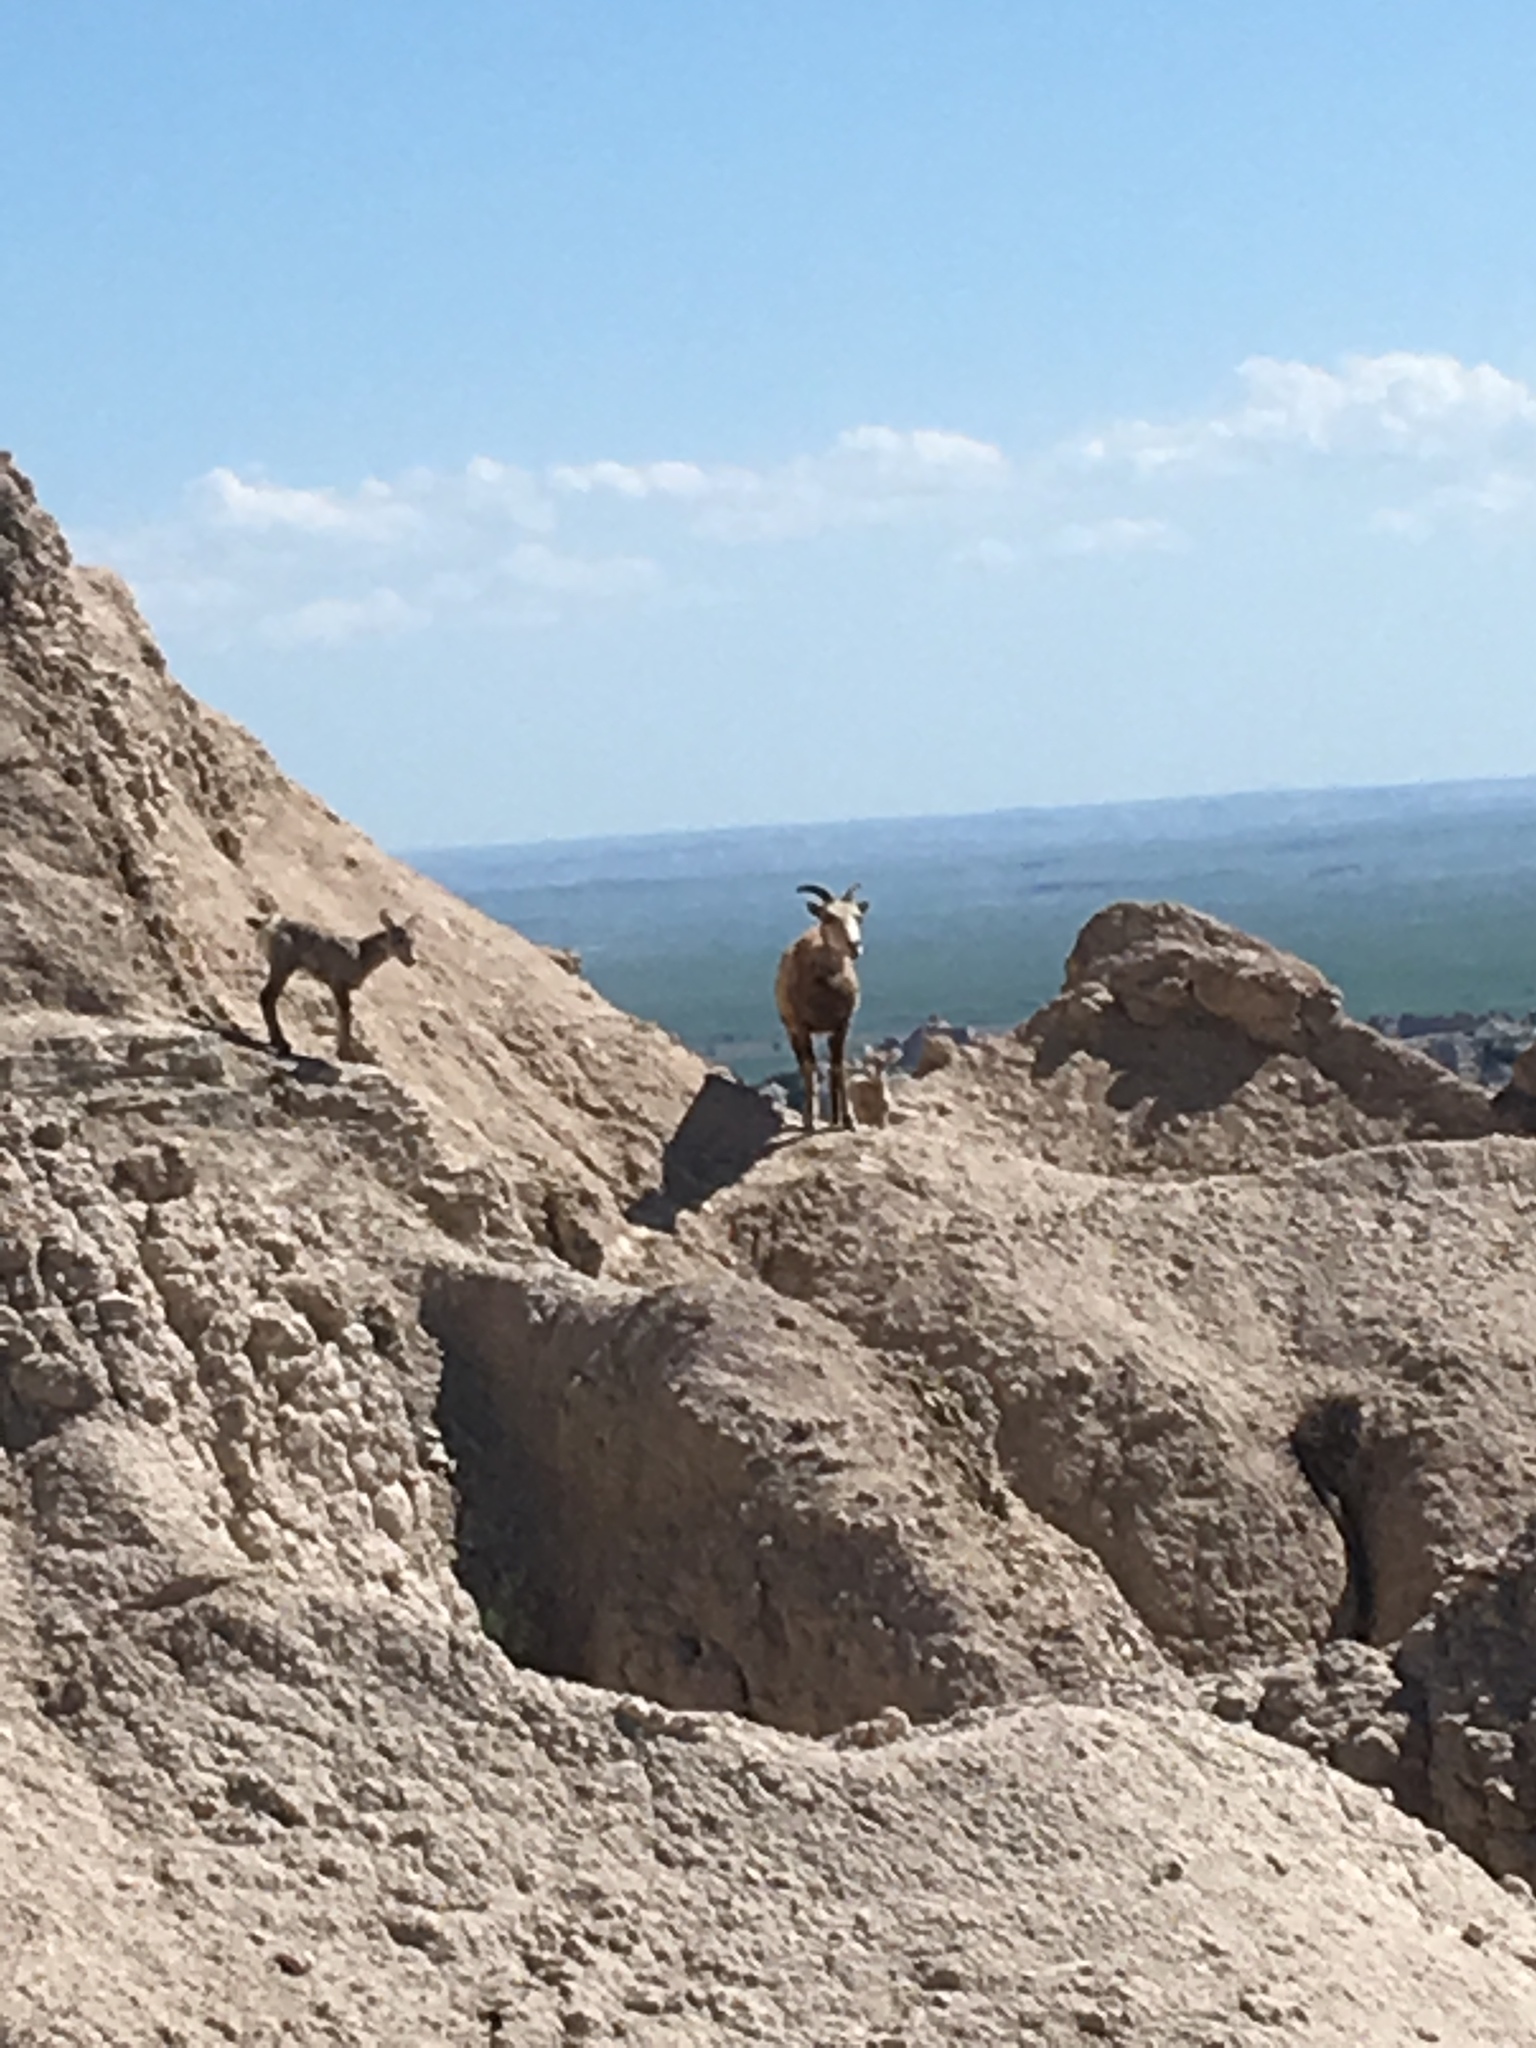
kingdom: Animalia
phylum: Chordata
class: Mammalia
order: Artiodactyla
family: Bovidae
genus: Ovis
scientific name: Ovis canadensis
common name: Bighorn sheep
